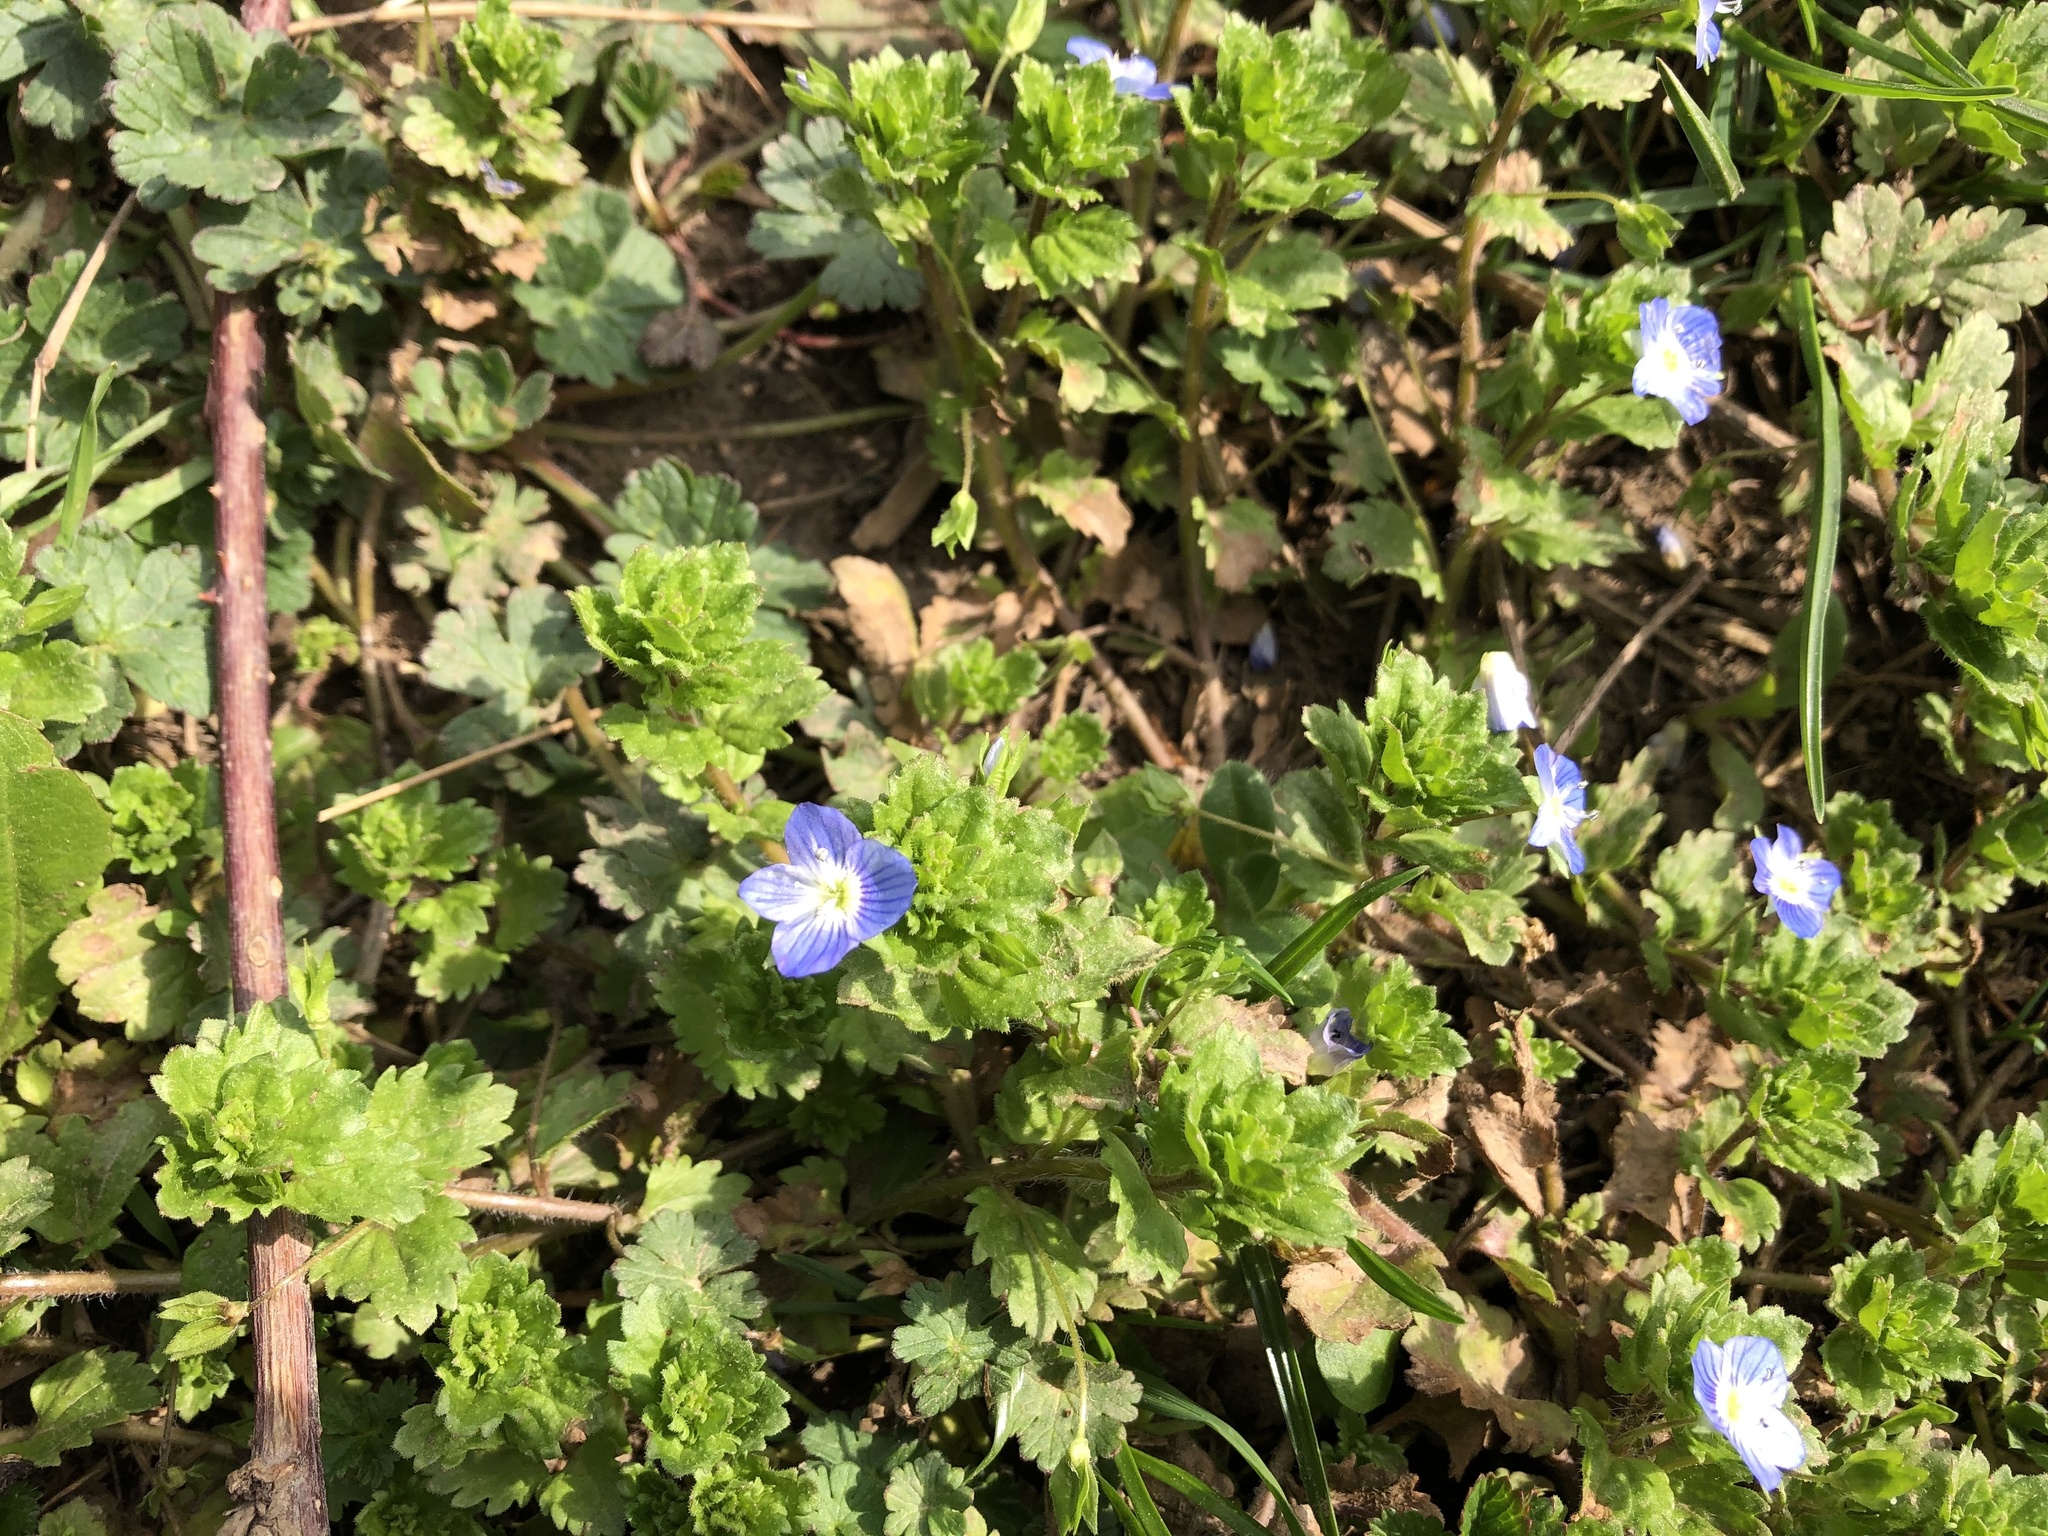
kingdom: Plantae
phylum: Tracheophyta
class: Magnoliopsida
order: Lamiales
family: Plantaginaceae
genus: Veronica
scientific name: Veronica persica
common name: Common field-speedwell
